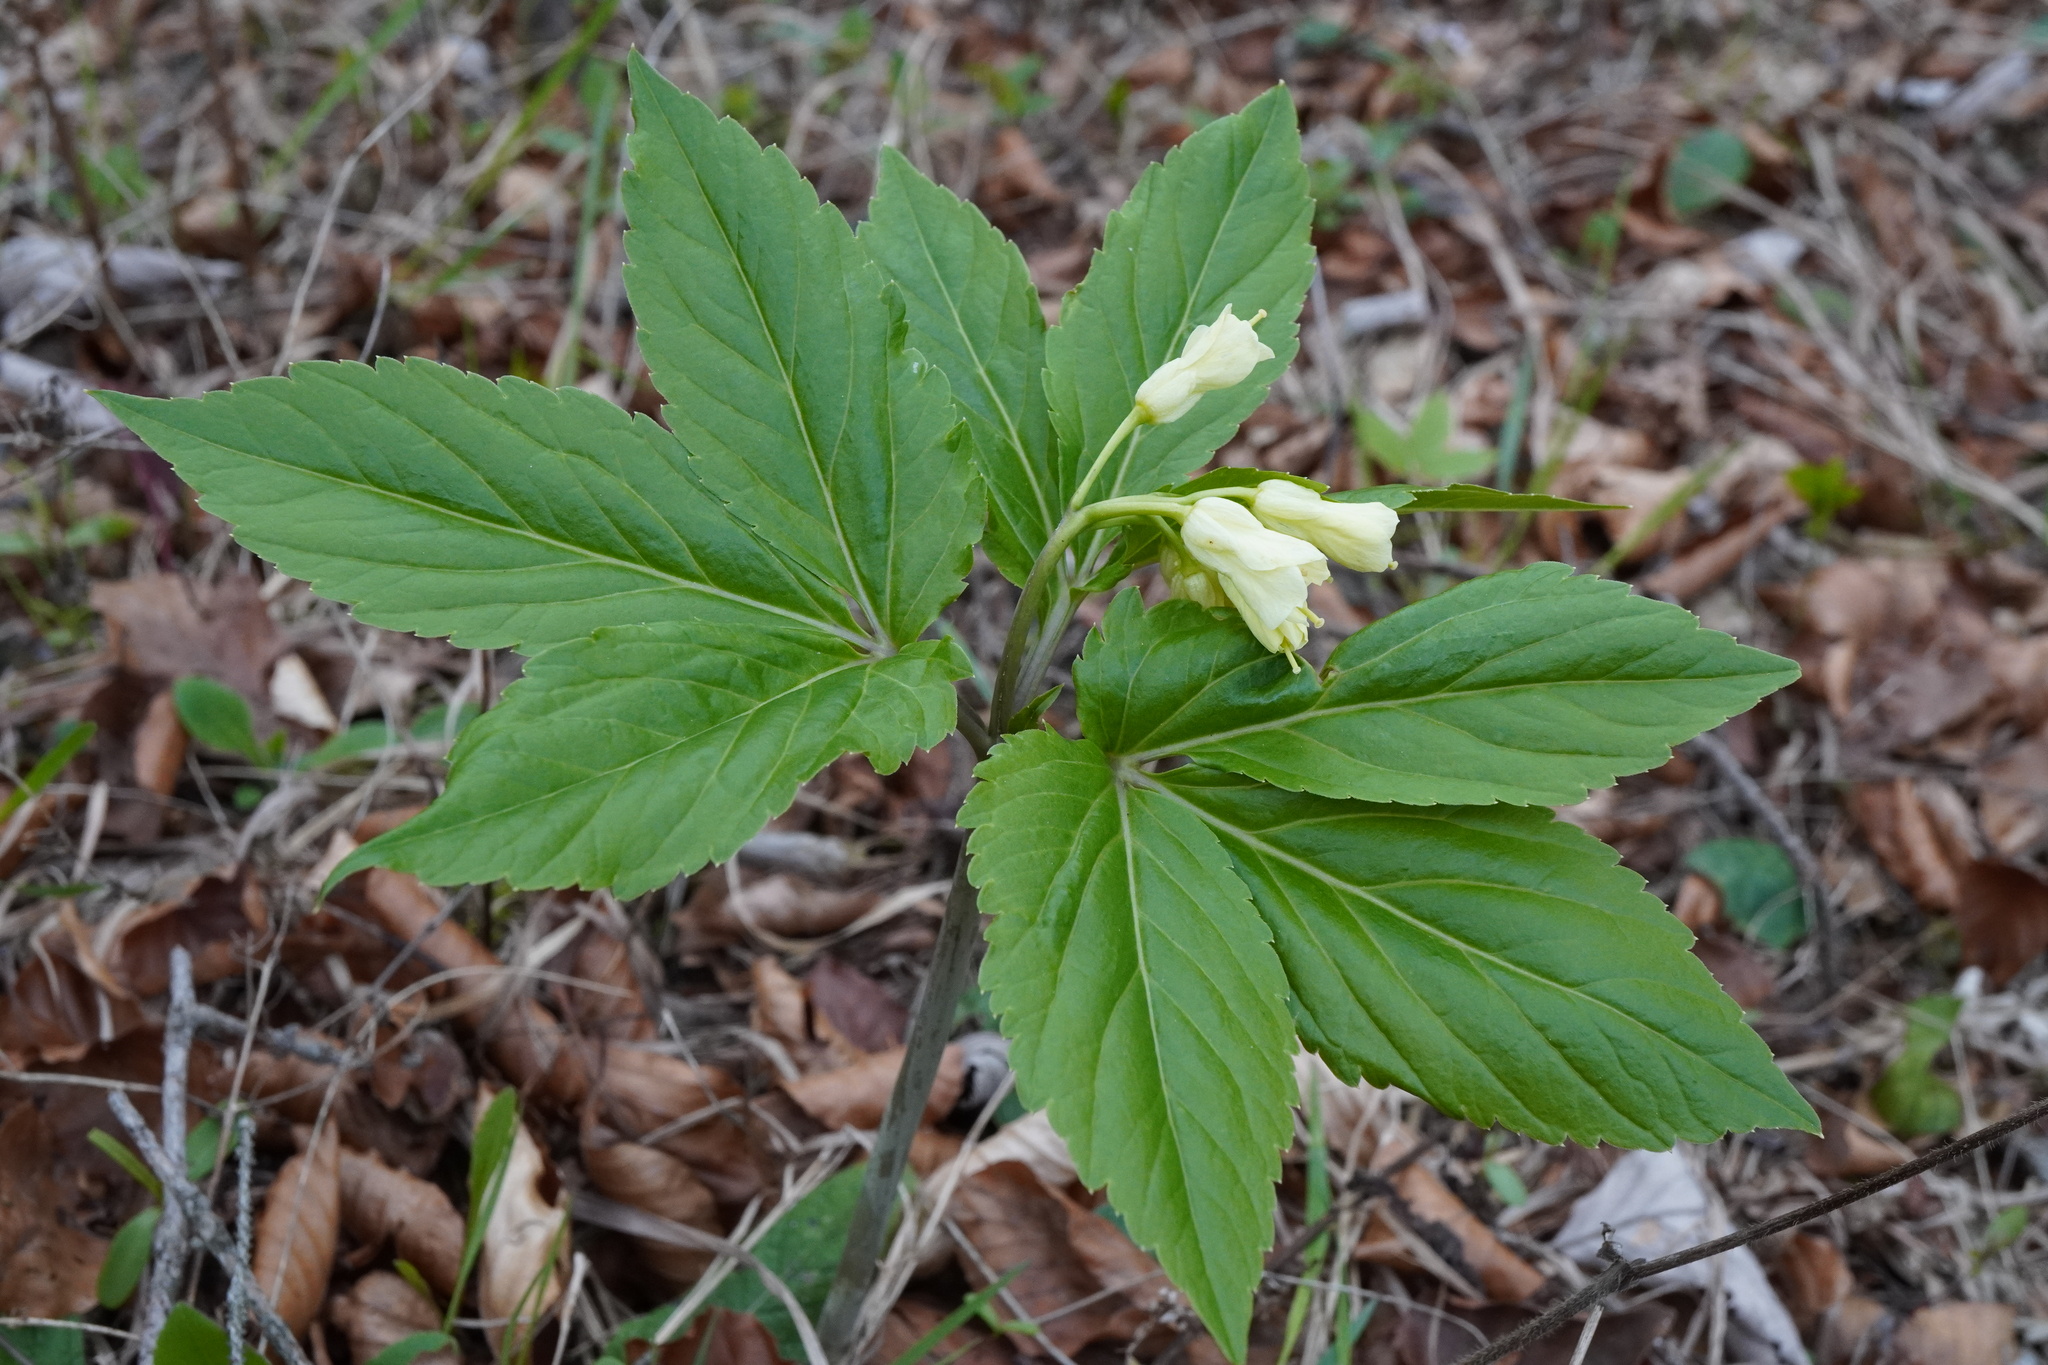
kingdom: Plantae
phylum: Tracheophyta
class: Magnoliopsida
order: Brassicales
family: Brassicaceae
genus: Cardamine
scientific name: Cardamine enneaphyllos
